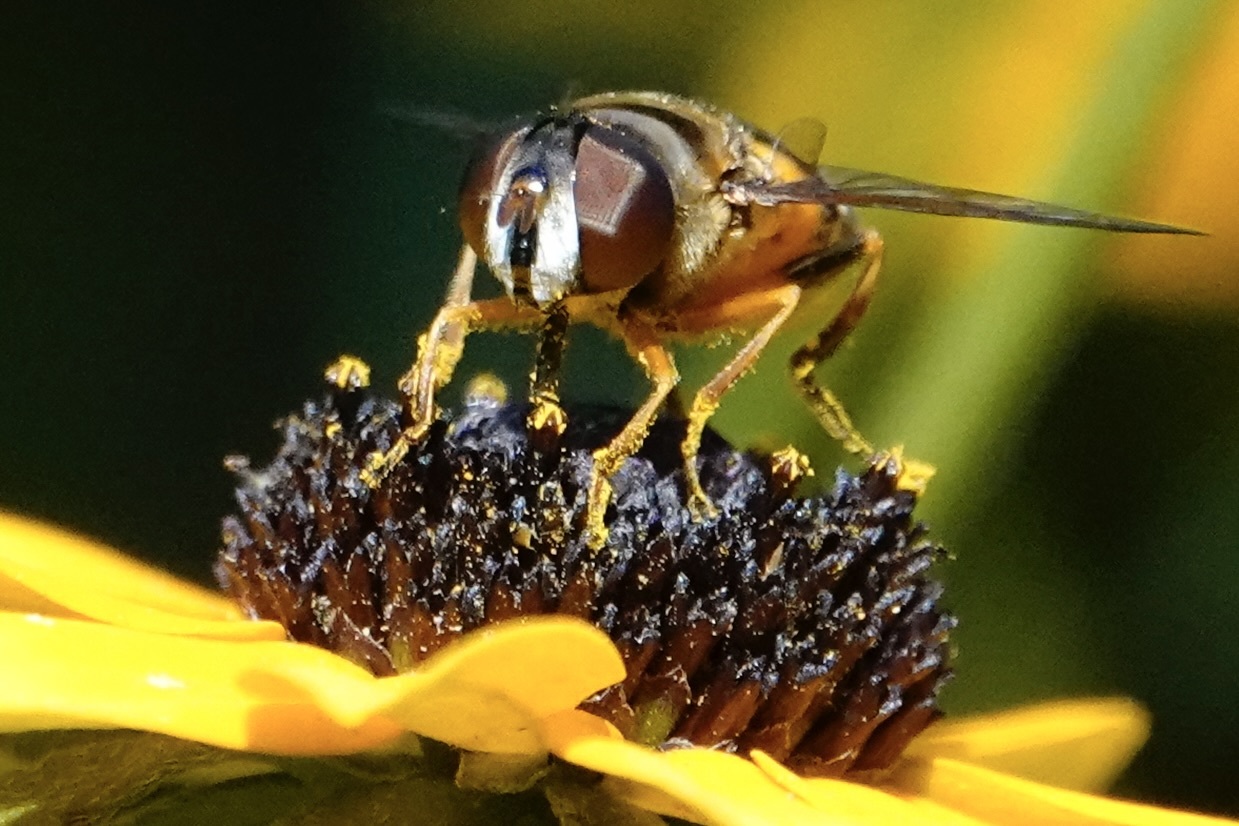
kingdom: Animalia
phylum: Arthropoda
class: Insecta
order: Diptera
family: Syrphidae
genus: Eristalis
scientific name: Eristalis transversa
